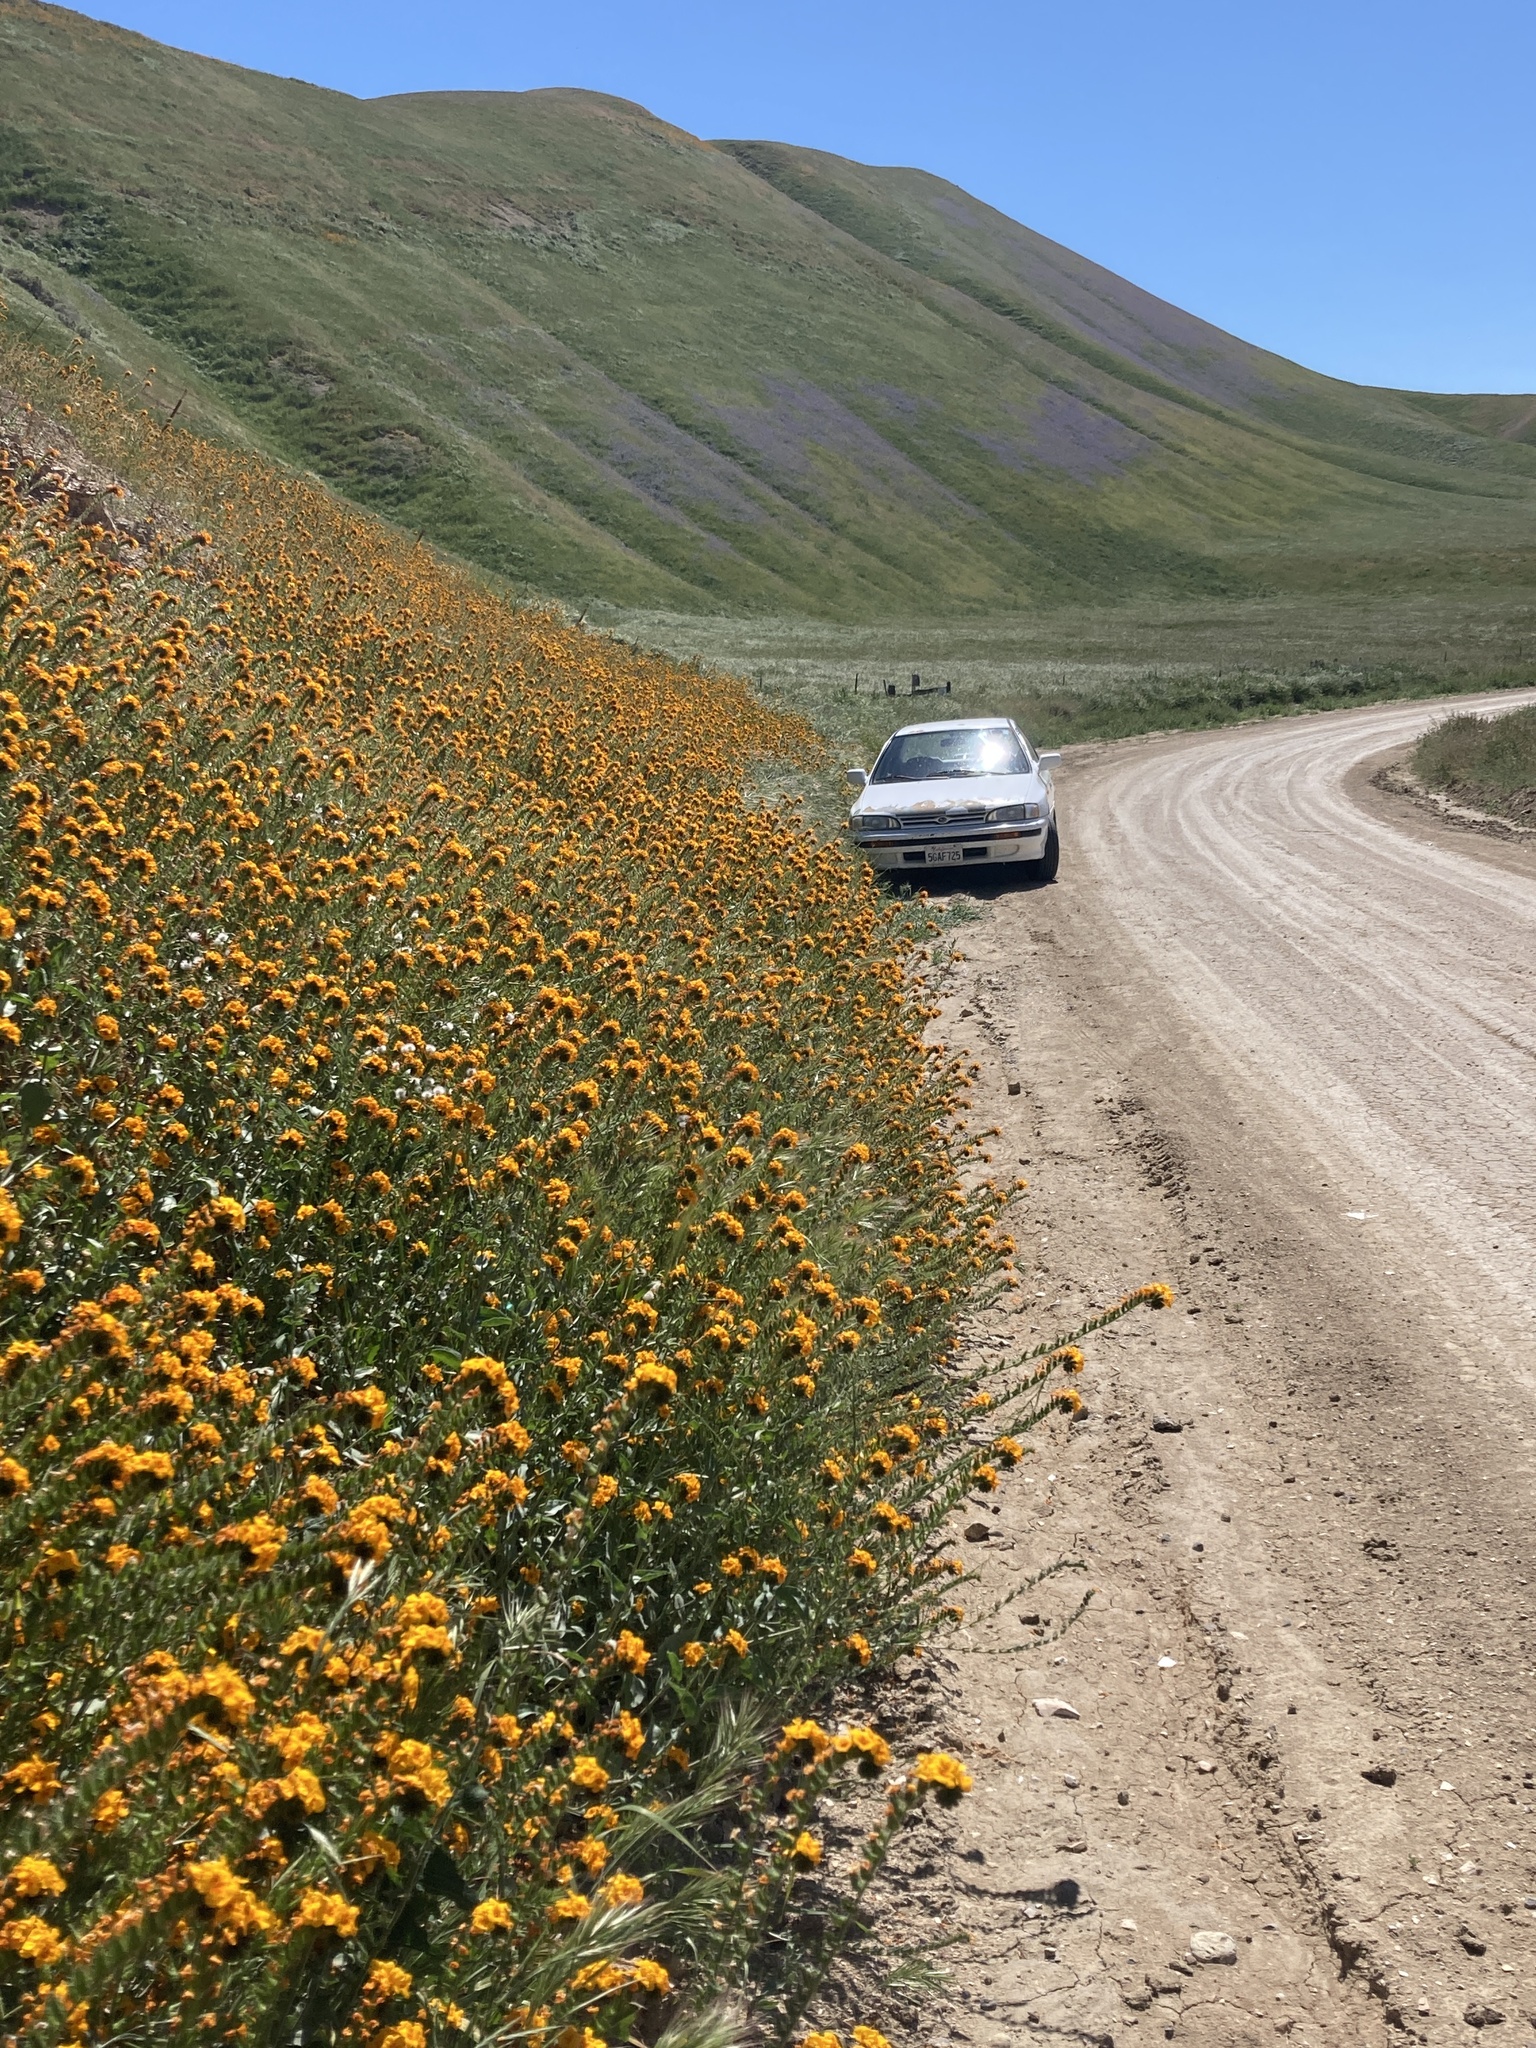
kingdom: Plantae
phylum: Tracheophyta
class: Magnoliopsida
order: Boraginales
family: Boraginaceae
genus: Amsinckia
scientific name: Amsinckia vernicosa
